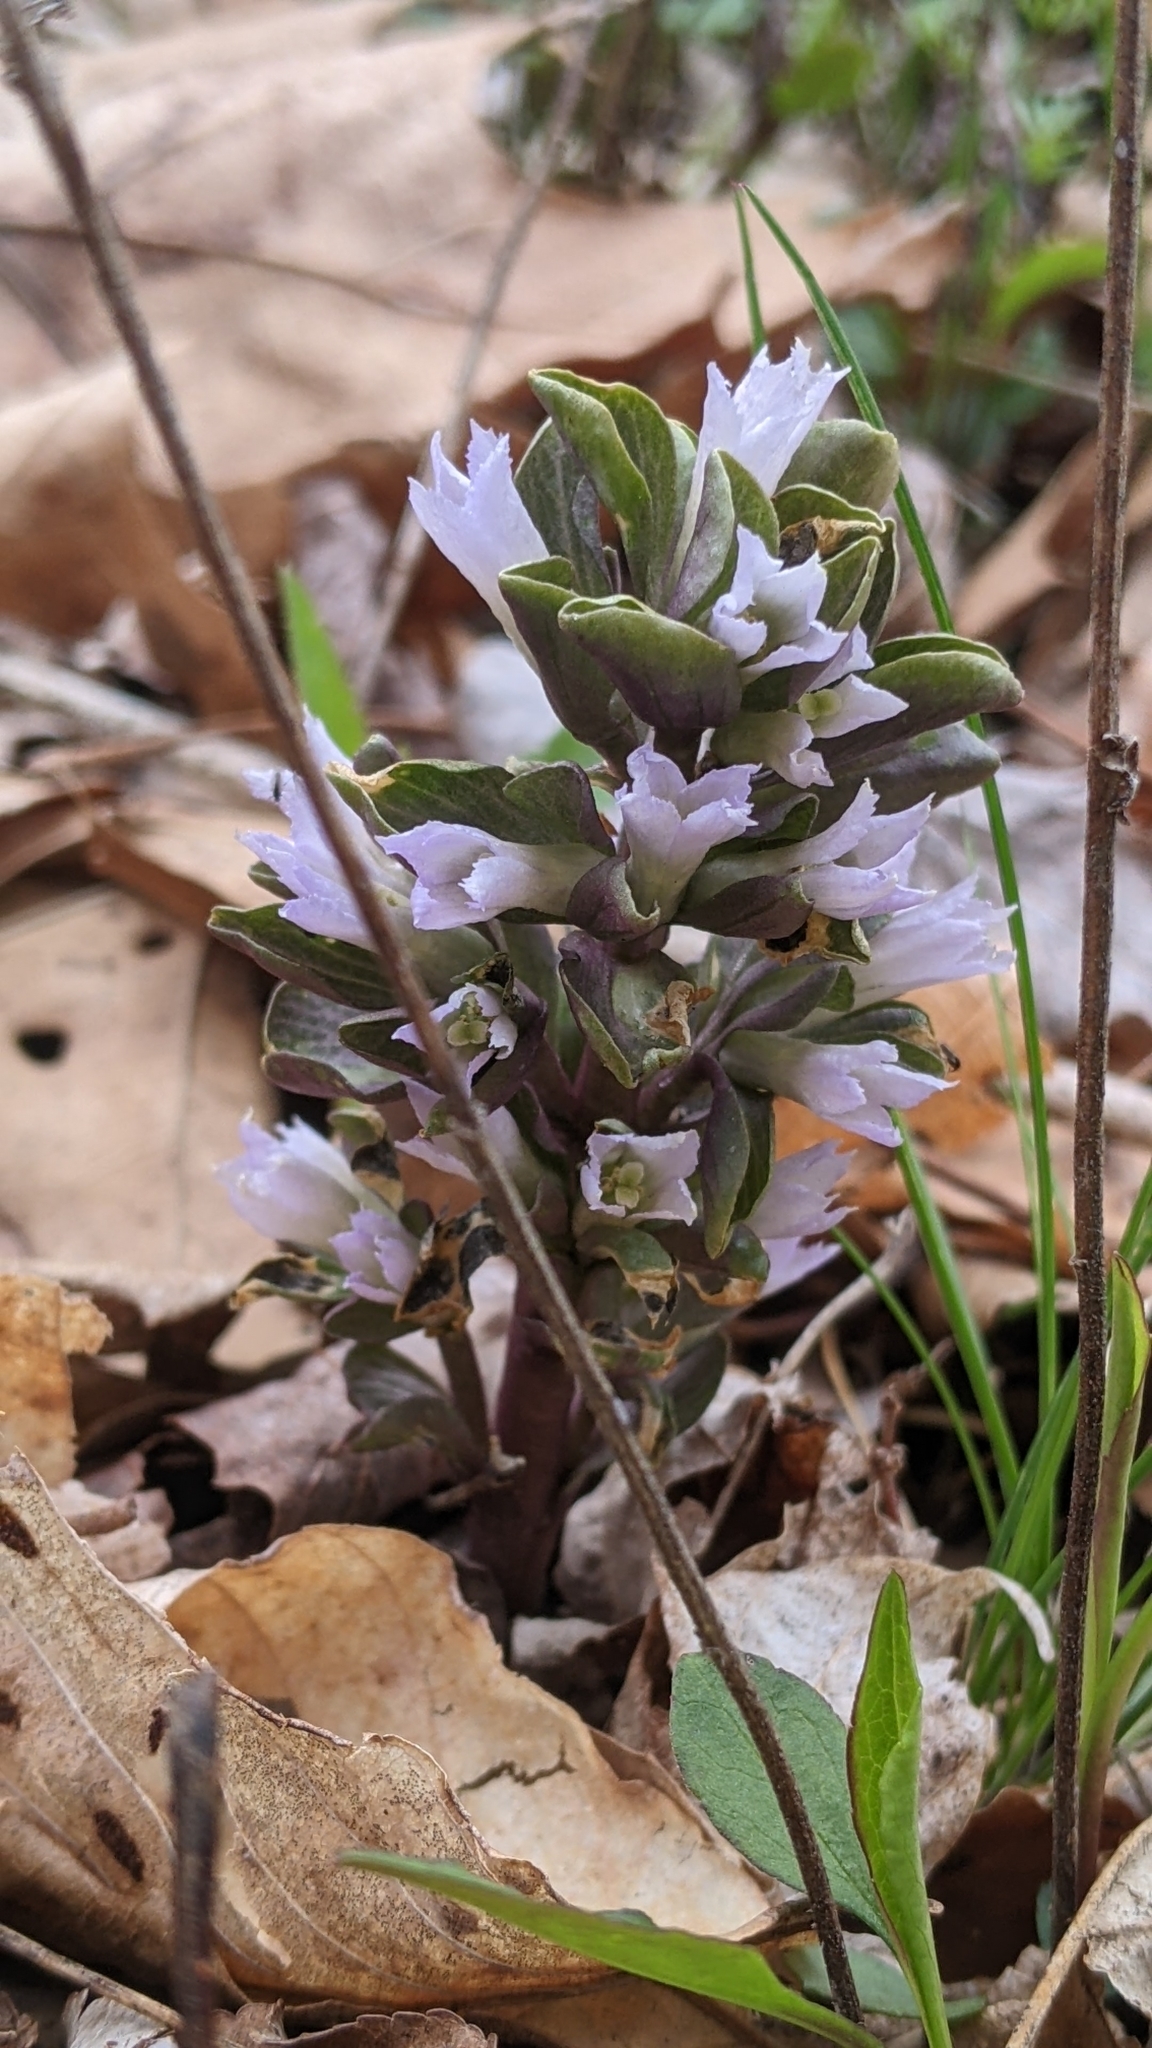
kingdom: Plantae
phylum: Tracheophyta
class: Magnoliopsida
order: Gentianales
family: Gentianaceae
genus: Obolaria
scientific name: Obolaria virginica
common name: Pennywort
